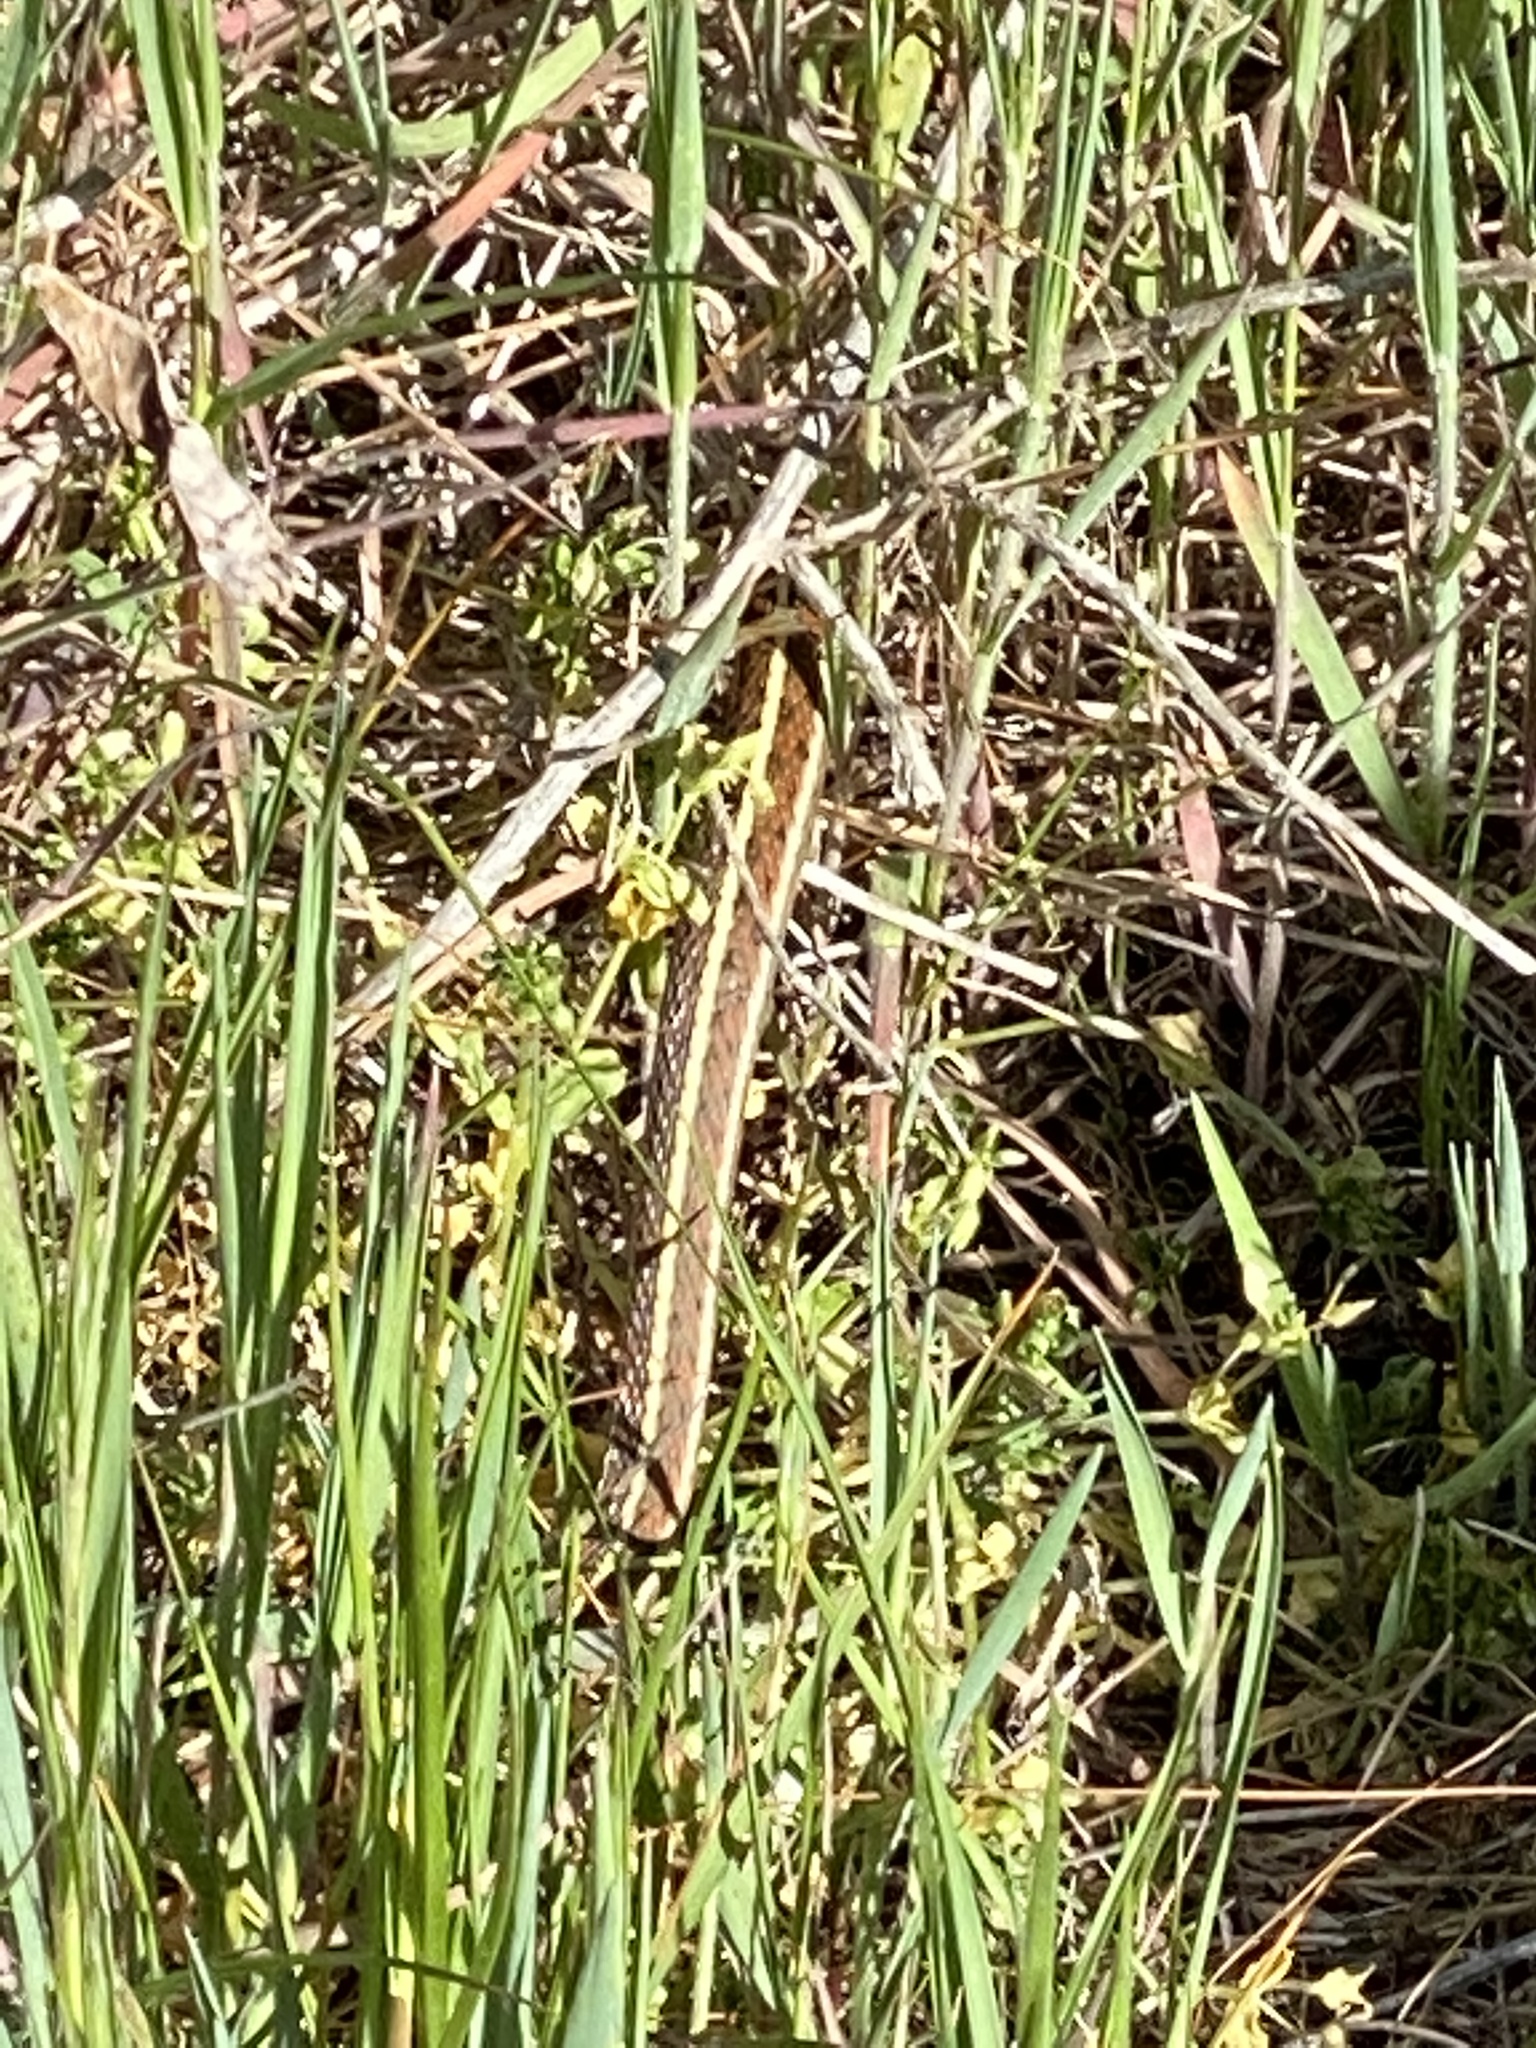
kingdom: Animalia
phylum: Chordata
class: Squamata
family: Colubridae
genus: Thamnophis
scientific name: Thamnophis elegans
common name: Western terrestrial garter snake
